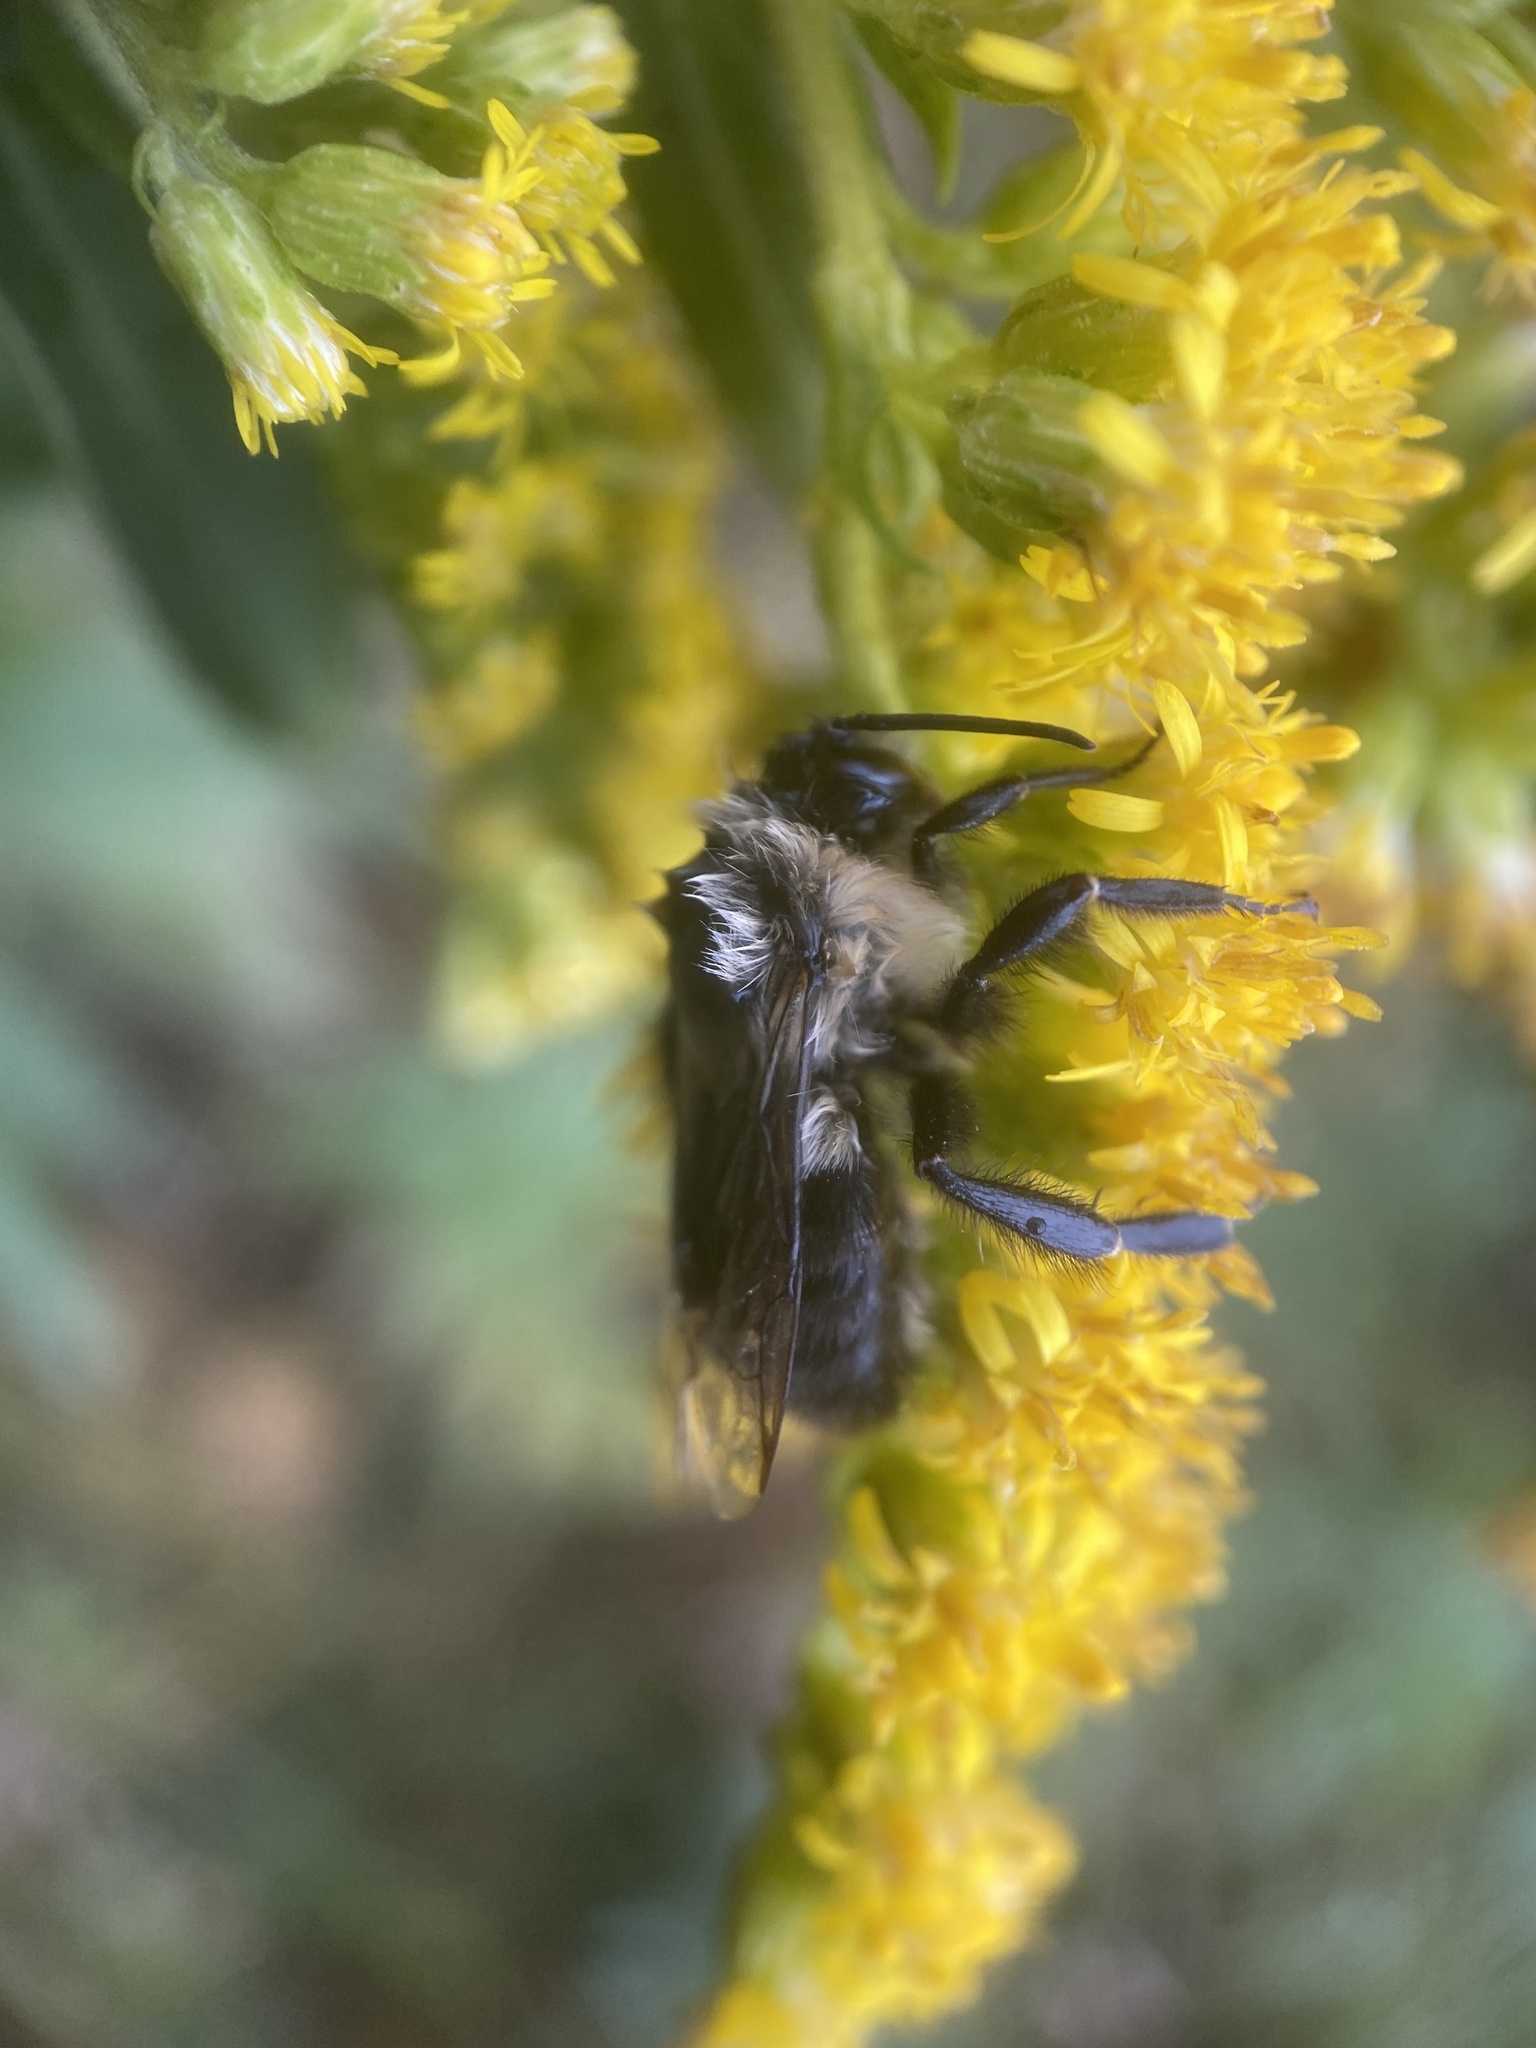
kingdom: Animalia
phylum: Arthropoda
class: Insecta
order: Hymenoptera
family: Apidae
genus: Bombus
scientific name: Bombus impatiens
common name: Common eastern bumble bee
